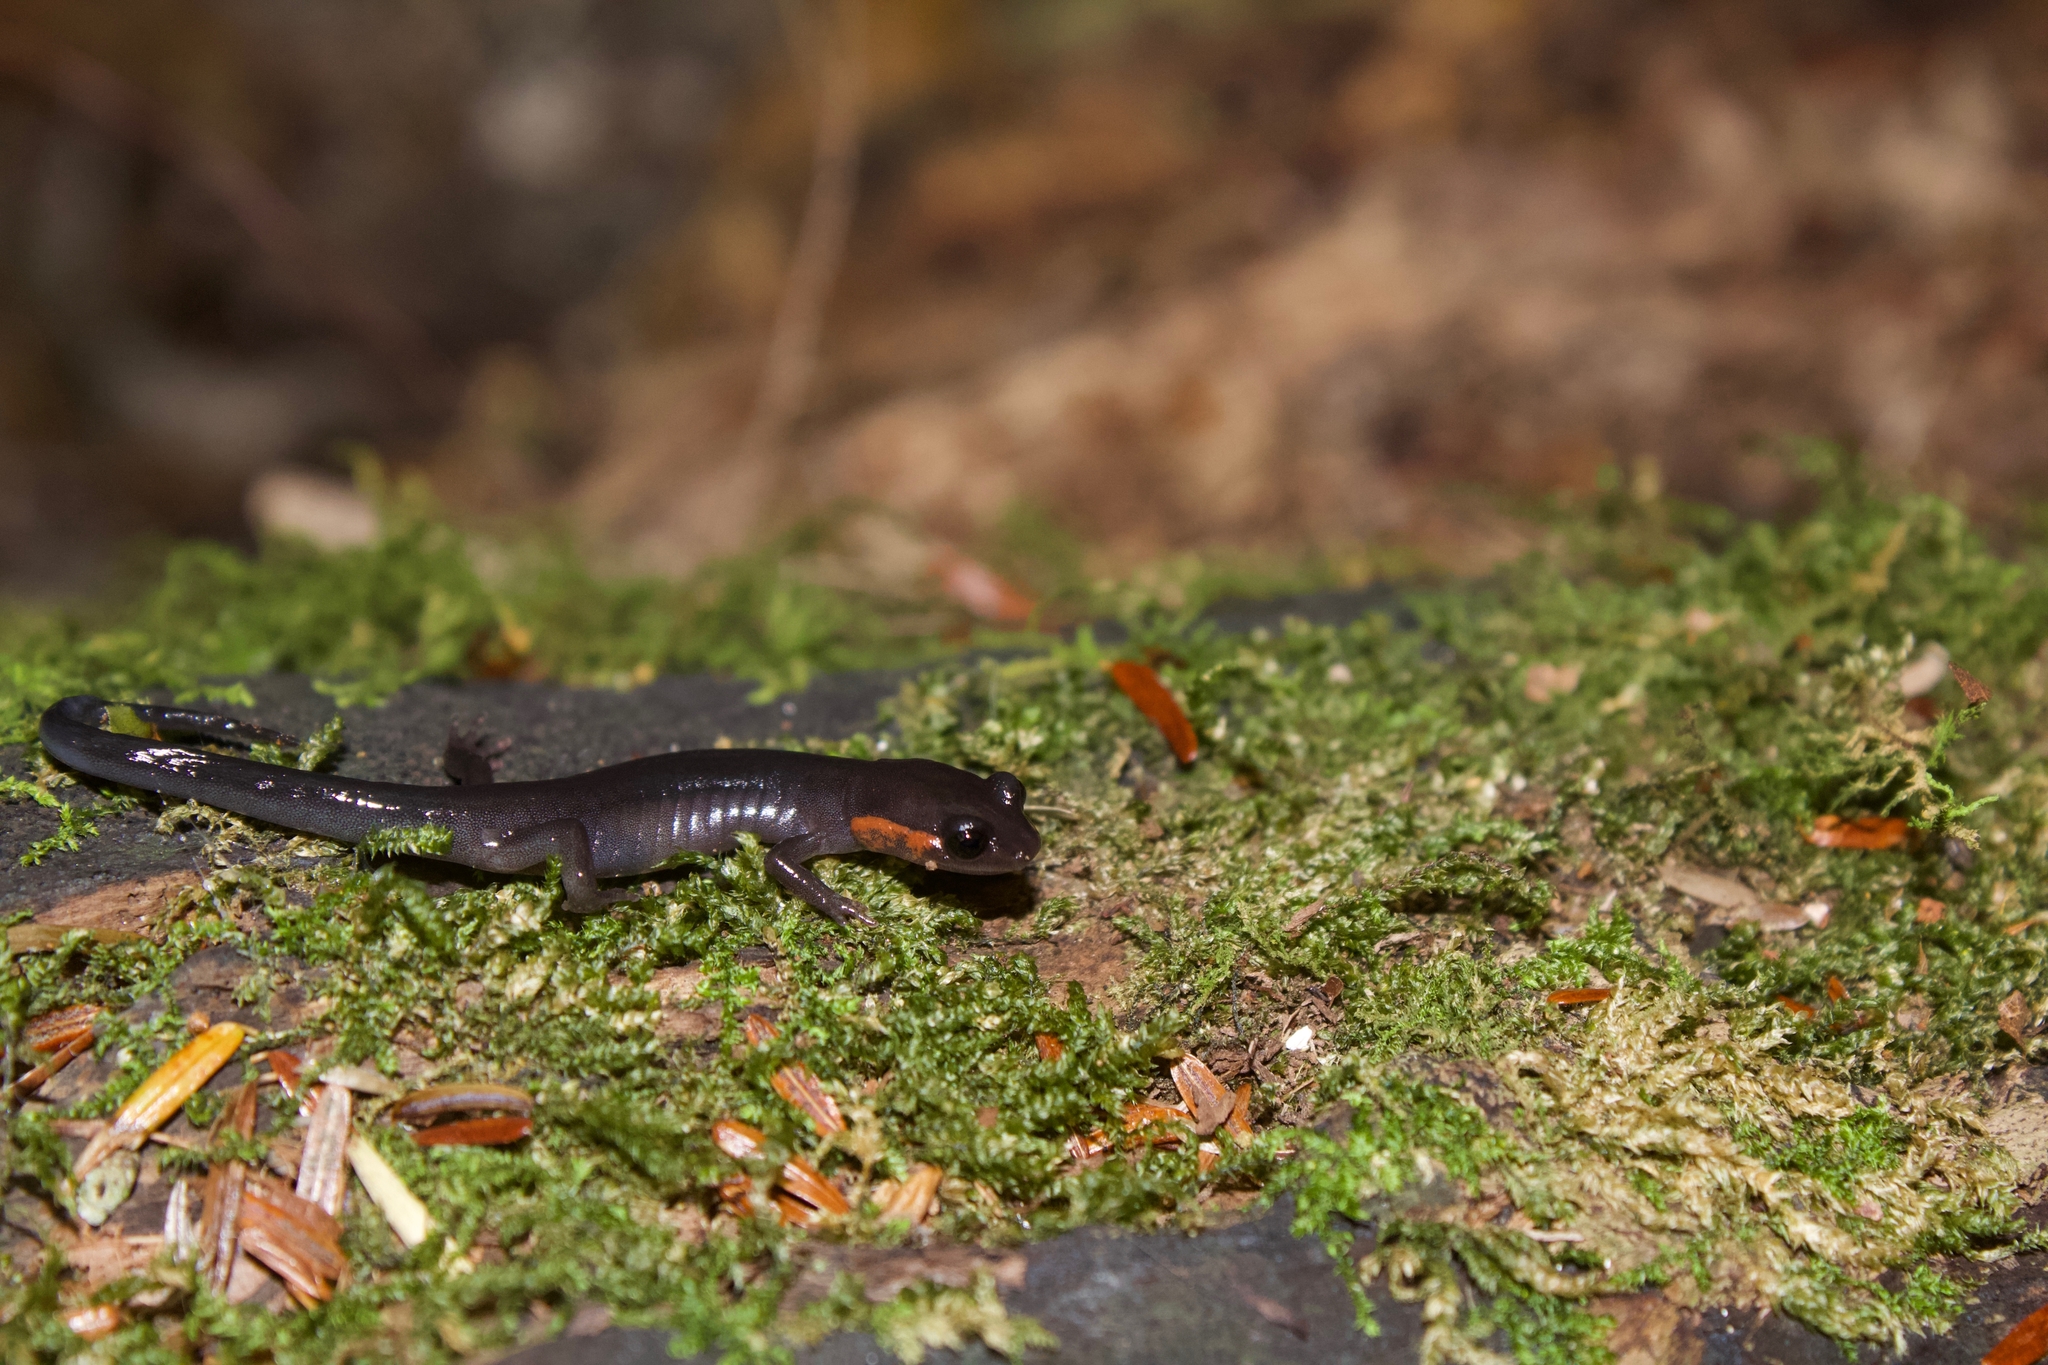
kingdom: Animalia
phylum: Chordata
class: Amphibia
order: Caudata
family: Plethodontidae
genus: Plethodon
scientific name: Plethodon jordani
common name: Red-cheeked salamander
